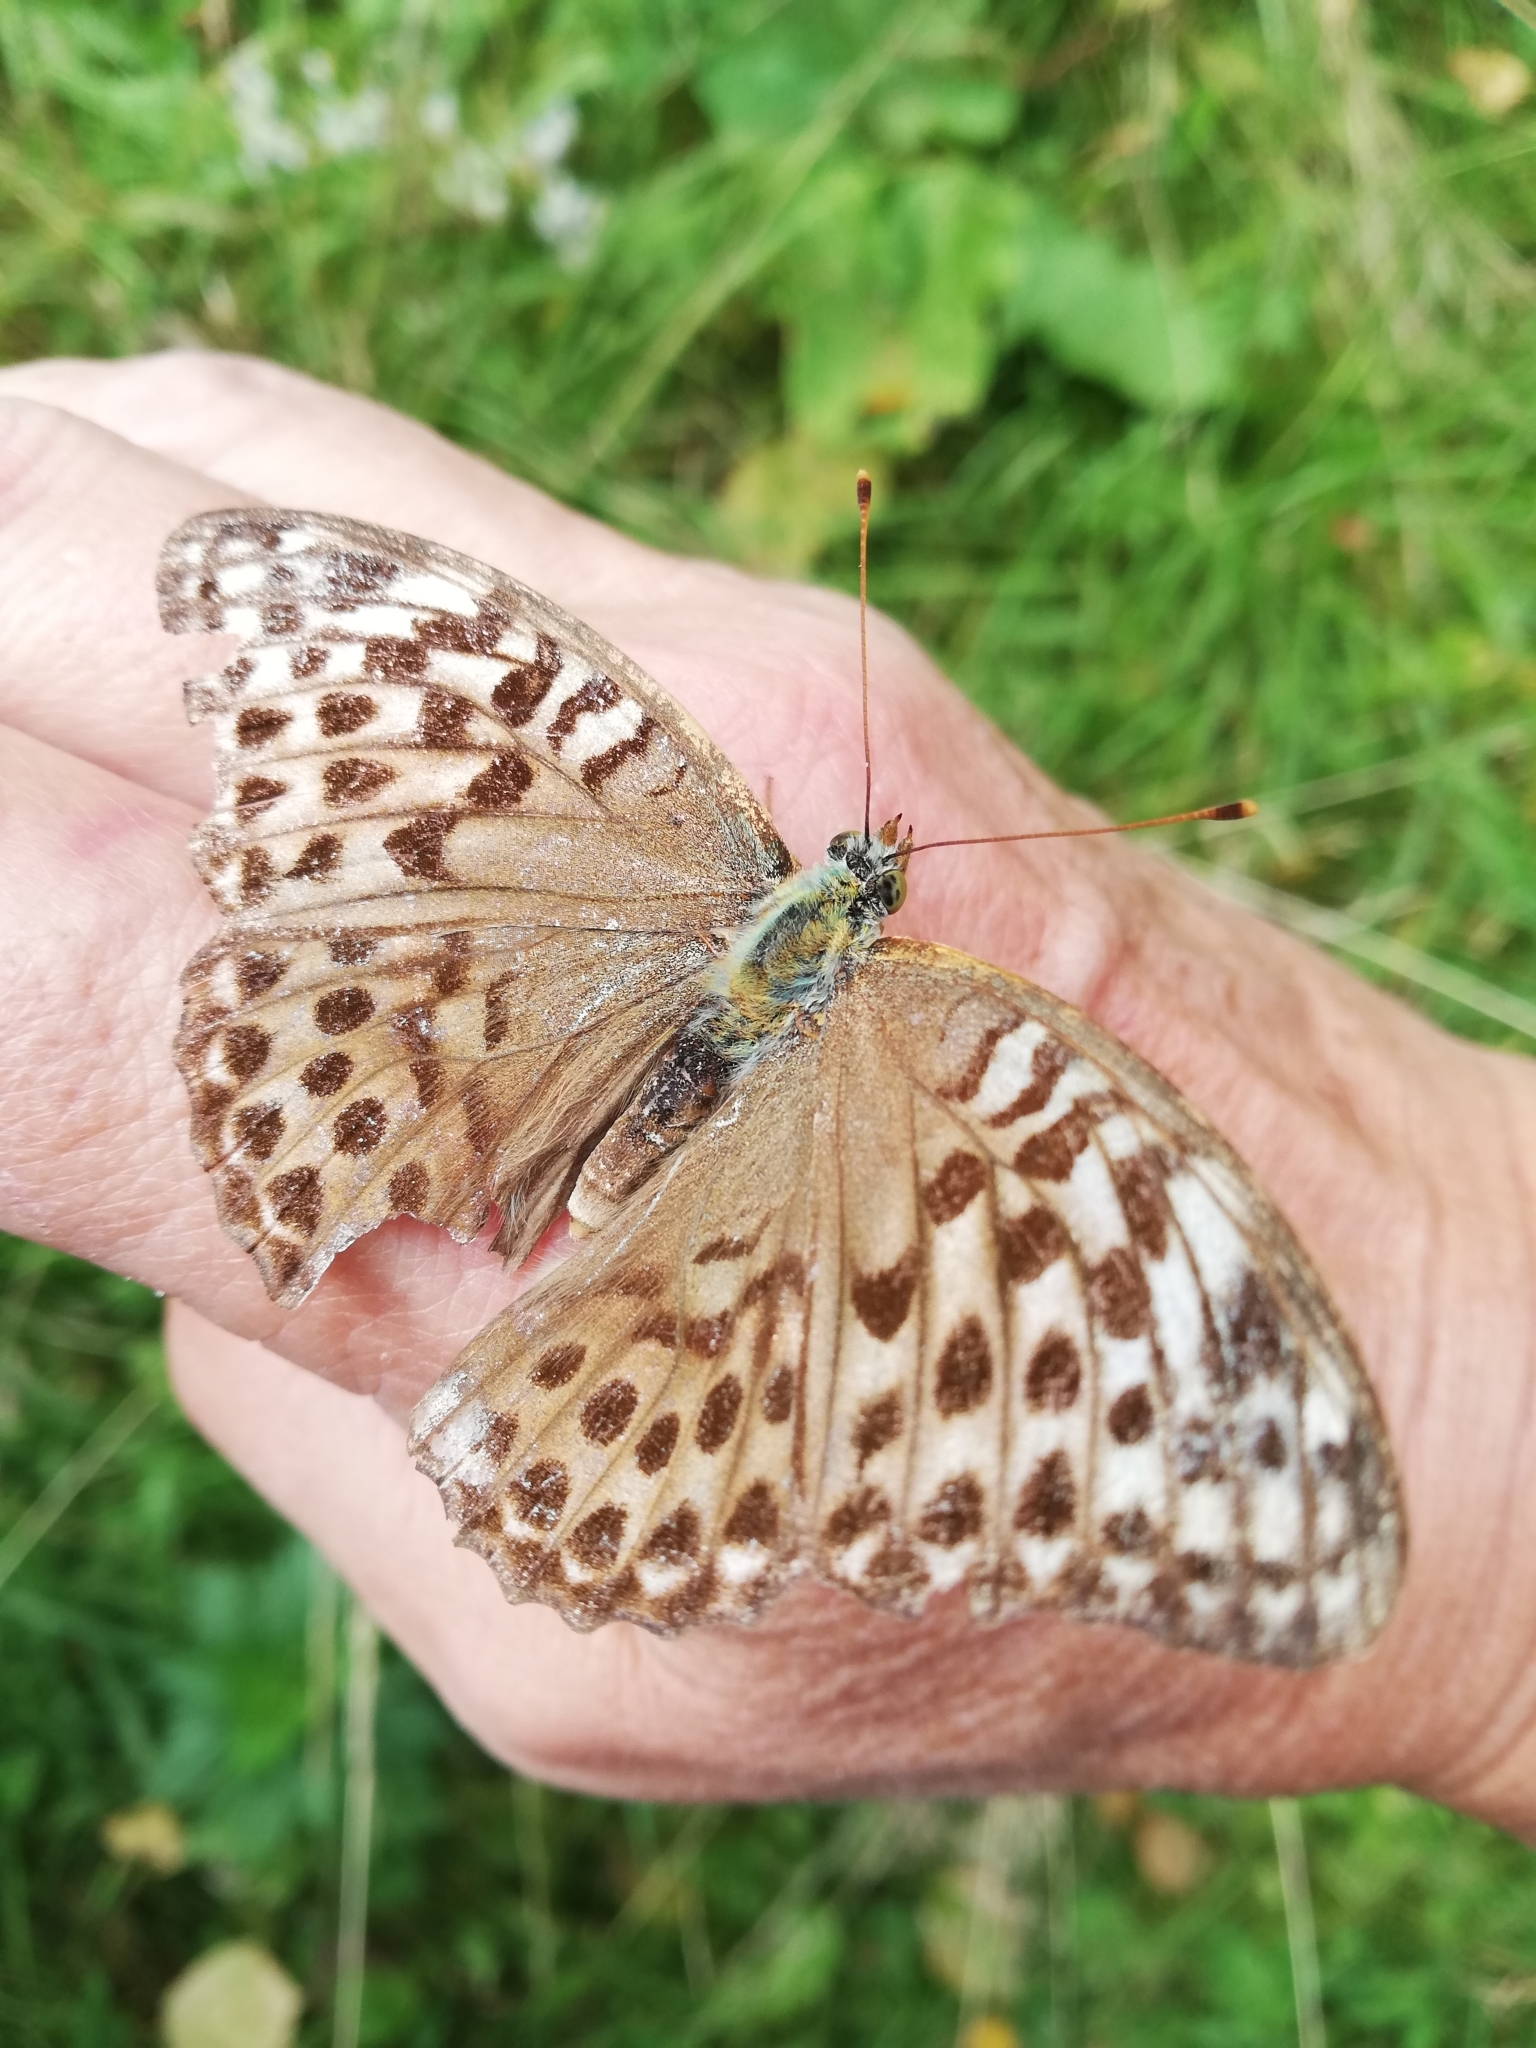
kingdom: Animalia
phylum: Arthropoda
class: Insecta
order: Lepidoptera
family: Nymphalidae
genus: Argynnis
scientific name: Argynnis paphia
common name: Silver-washed fritillary
